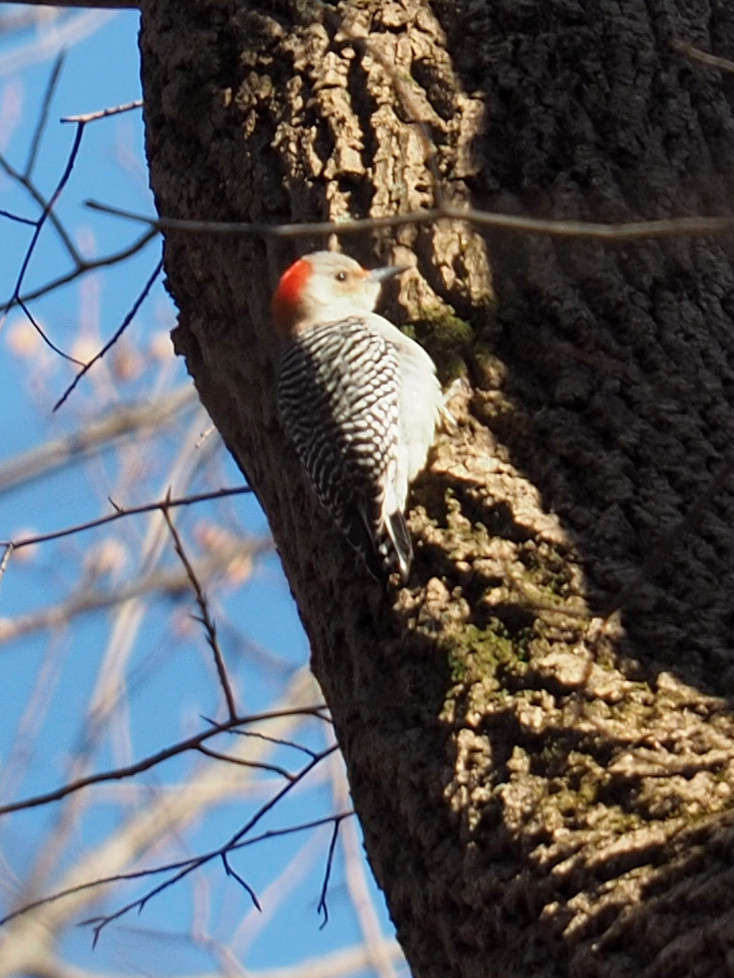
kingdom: Animalia
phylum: Chordata
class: Aves
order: Piciformes
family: Picidae
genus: Melanerpes
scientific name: Melanerpes carolinus
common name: Red-bellied woodpecker
